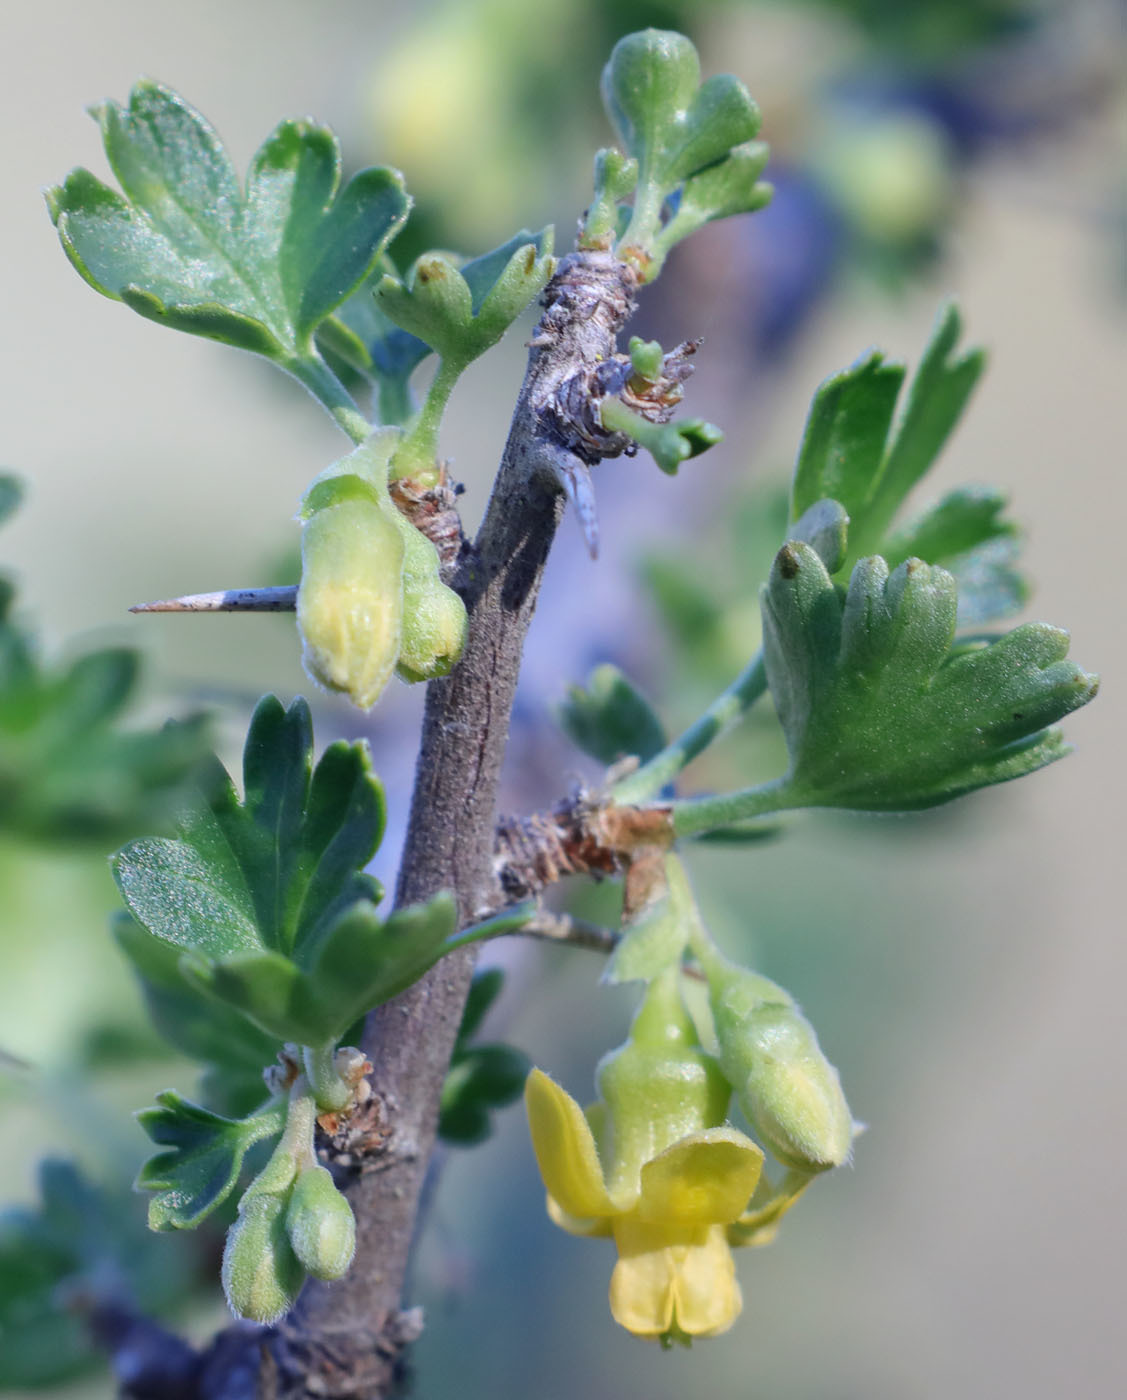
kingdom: Plantae
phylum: Tracheophyta
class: Magnoliopsida
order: Saxifragales
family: Grossulariaceae
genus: Ribes
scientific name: Ribes quercetorum
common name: Oak gooseberry
